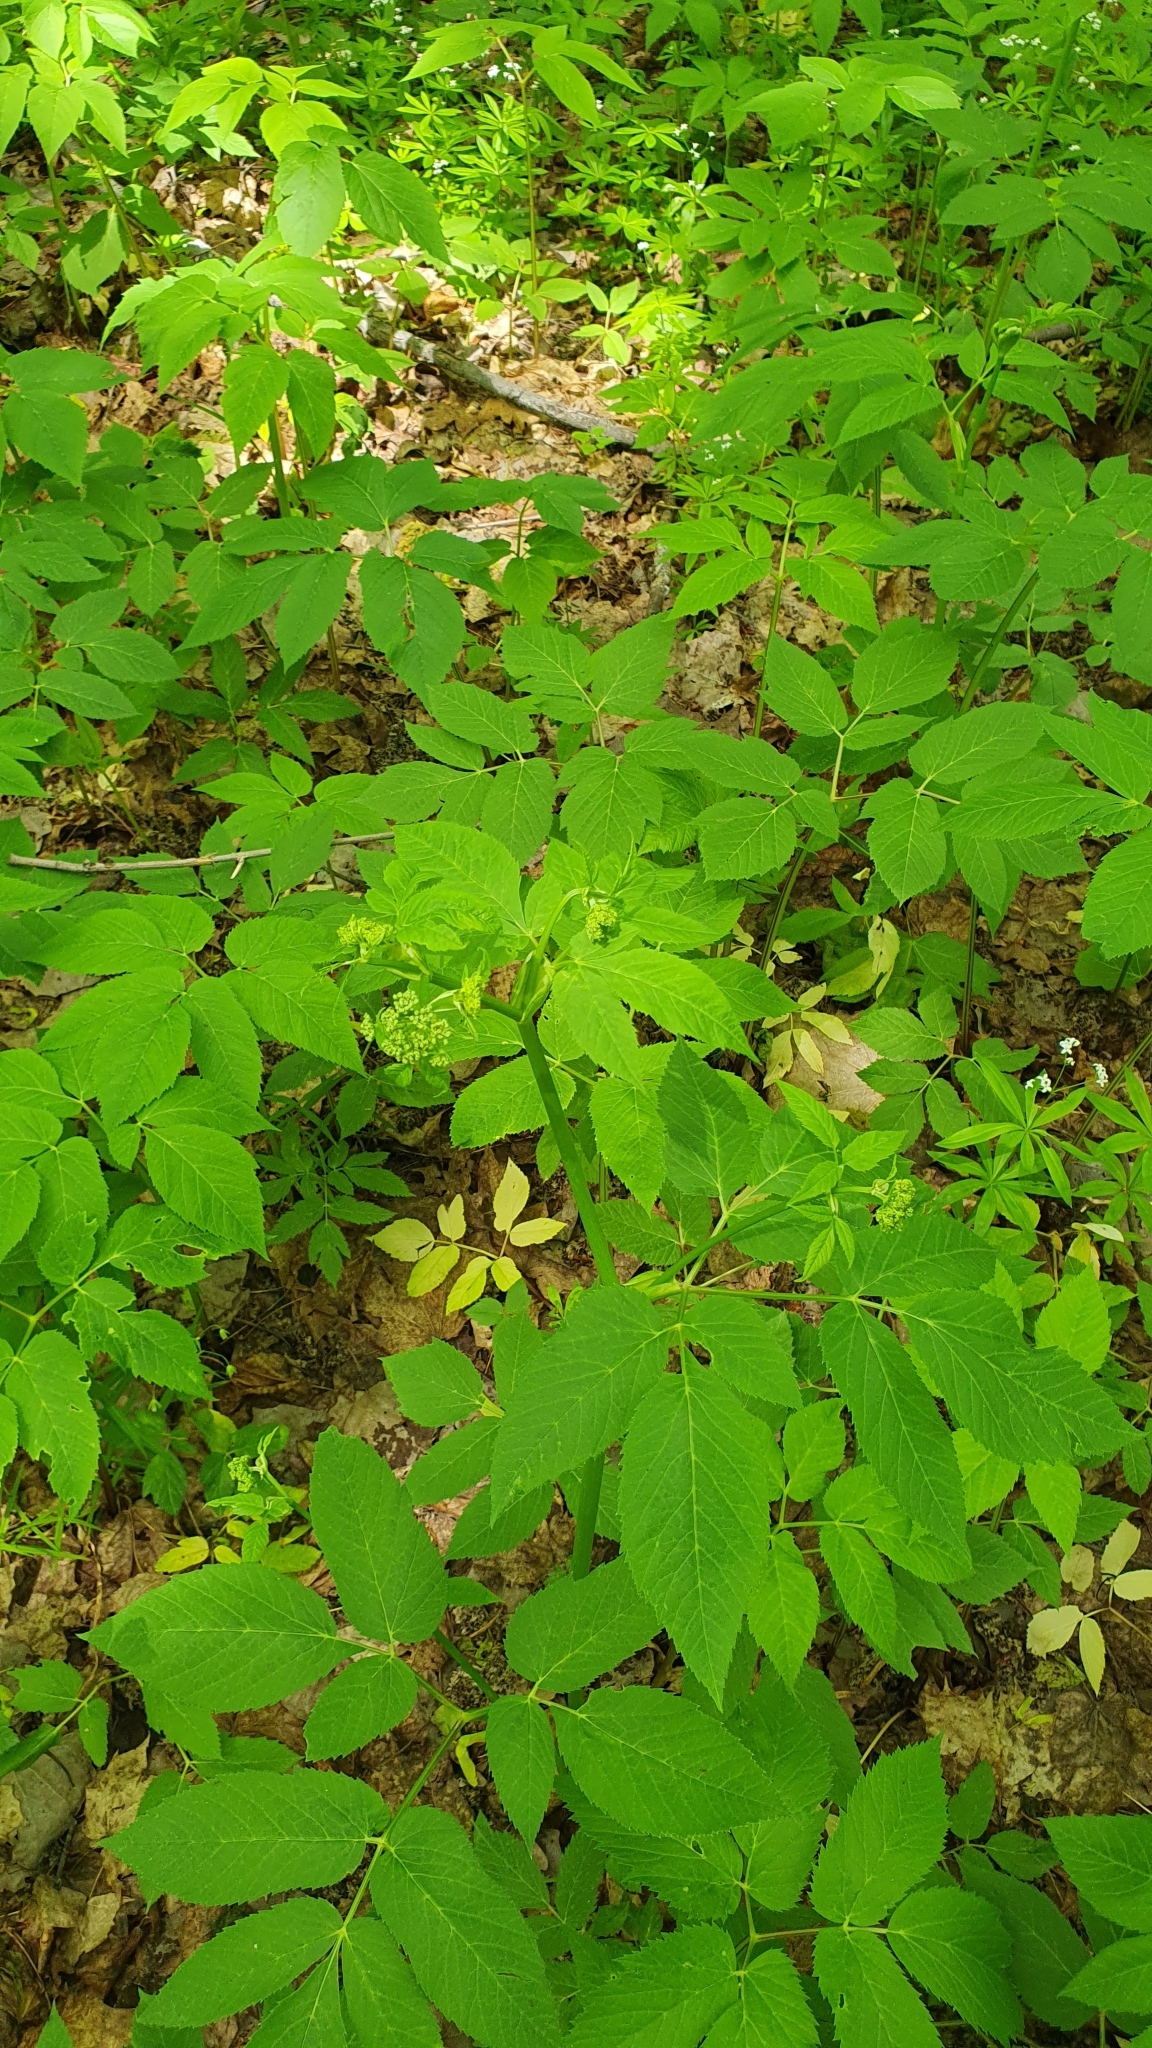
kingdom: Plantae
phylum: Tracheophyta
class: Magnoliopsida
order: Apiales
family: Apiaceae
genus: Aegopodium
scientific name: Aegopodium podagraria
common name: Ground-elder
